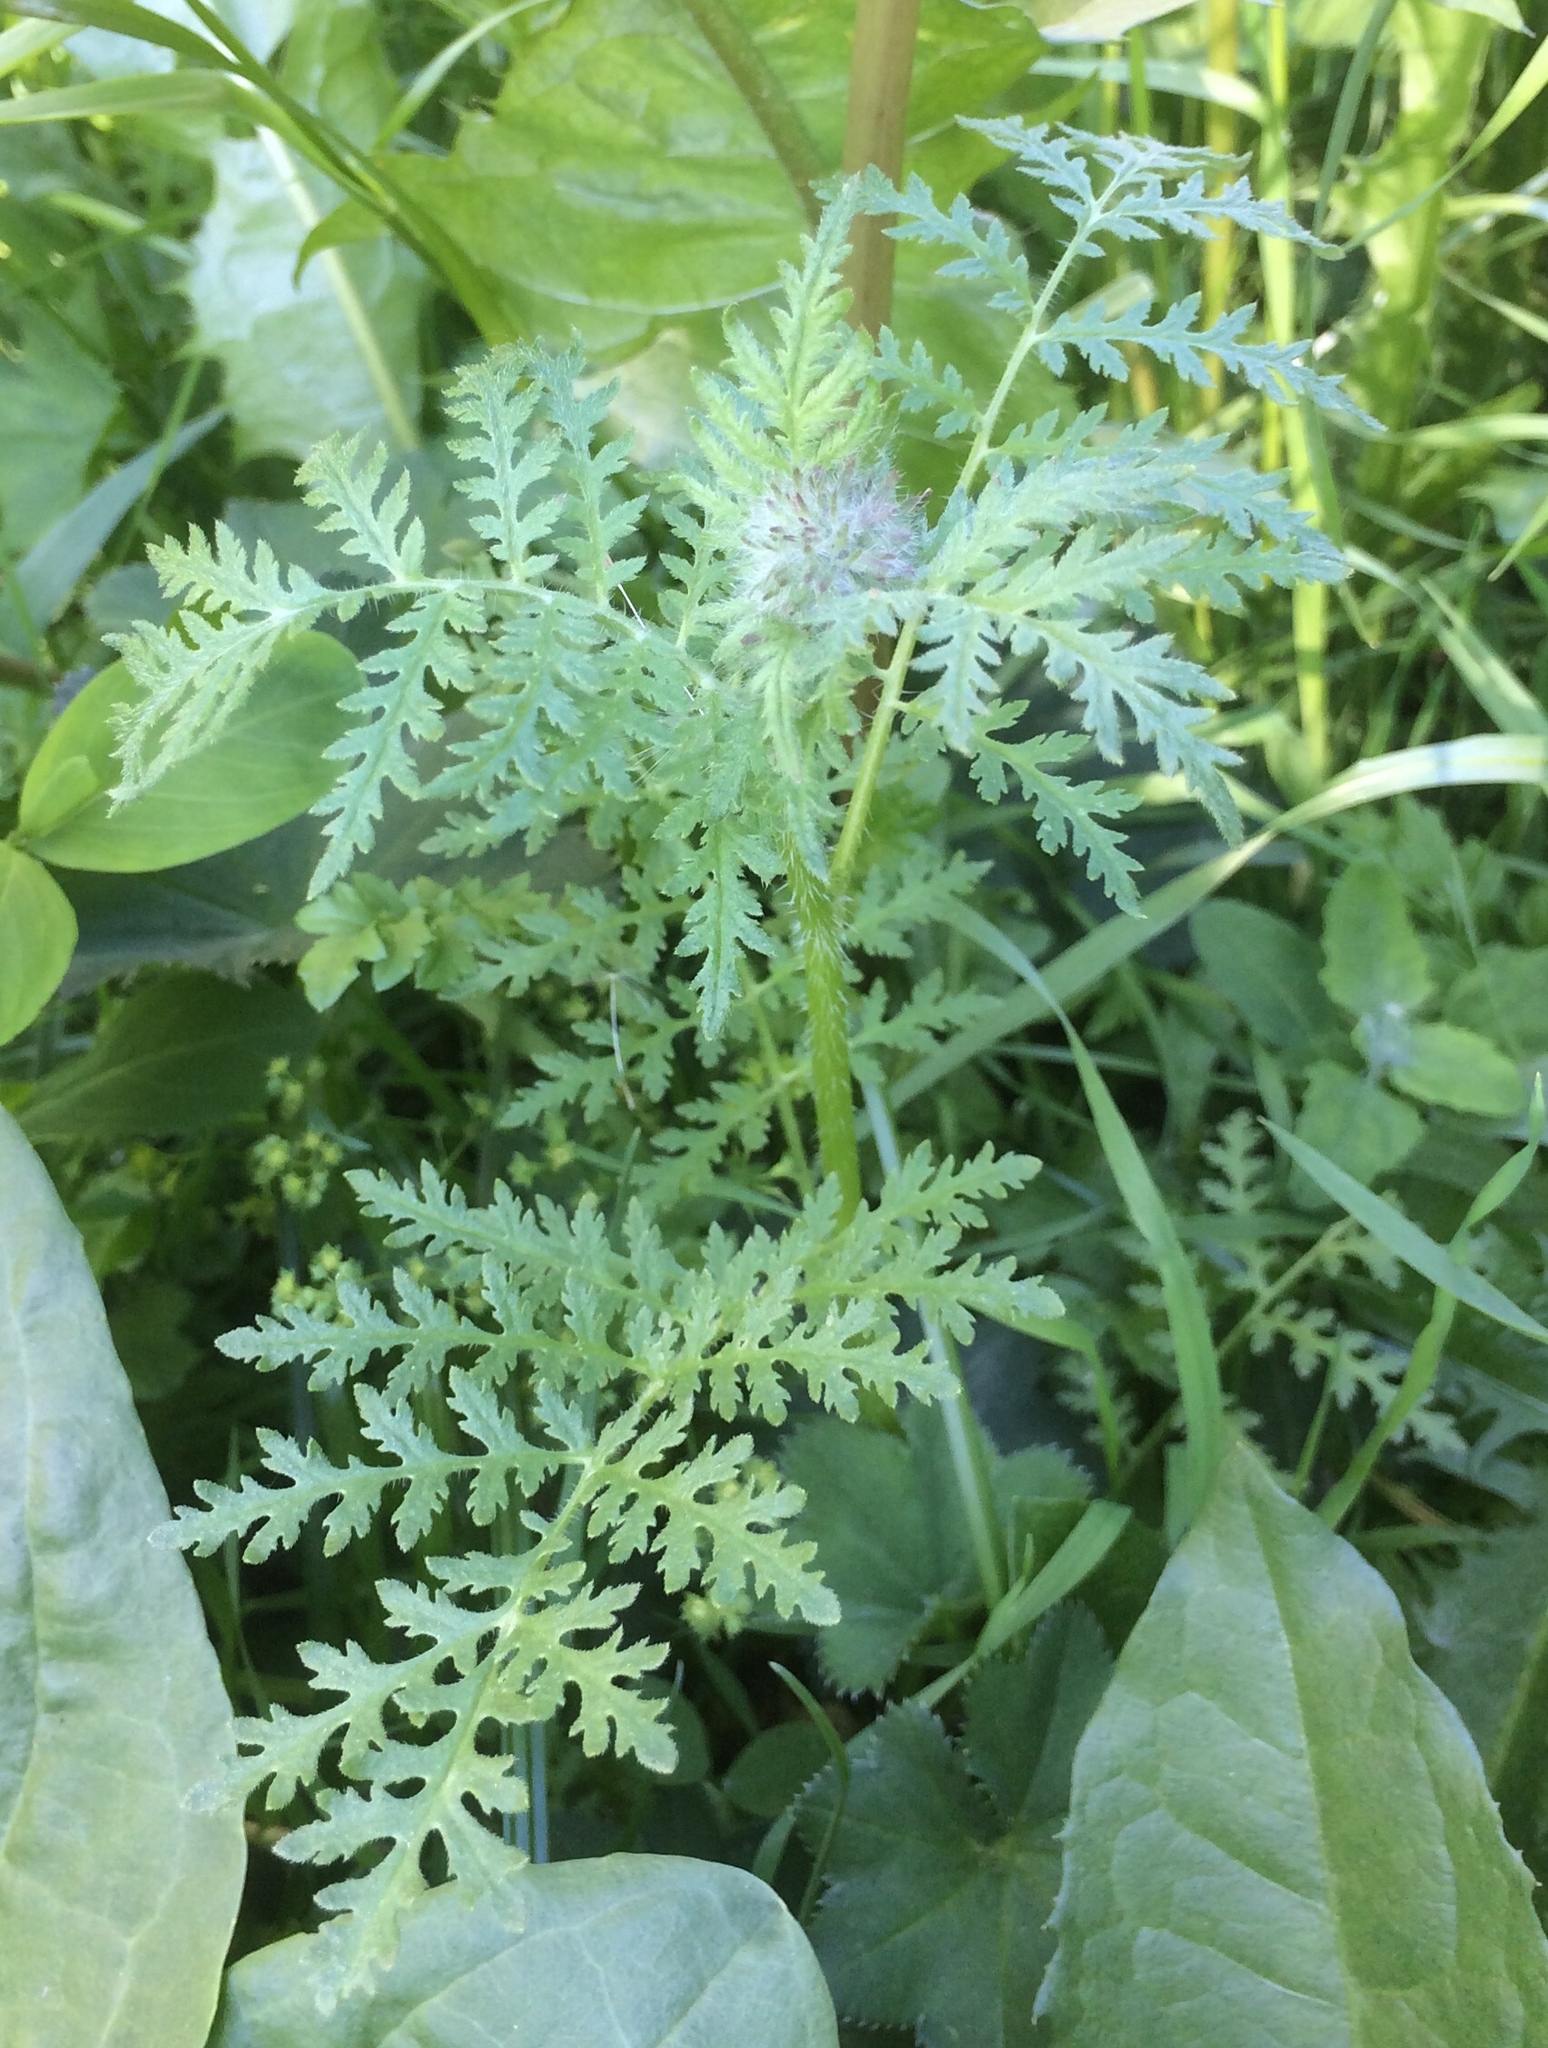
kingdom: Plantae
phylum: Tracheophyta
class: Magnoliopsida
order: Boraginales
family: Hydrophyllaceae
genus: Phacelia
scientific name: Phacelia tanacetifolia
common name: Phacelia
